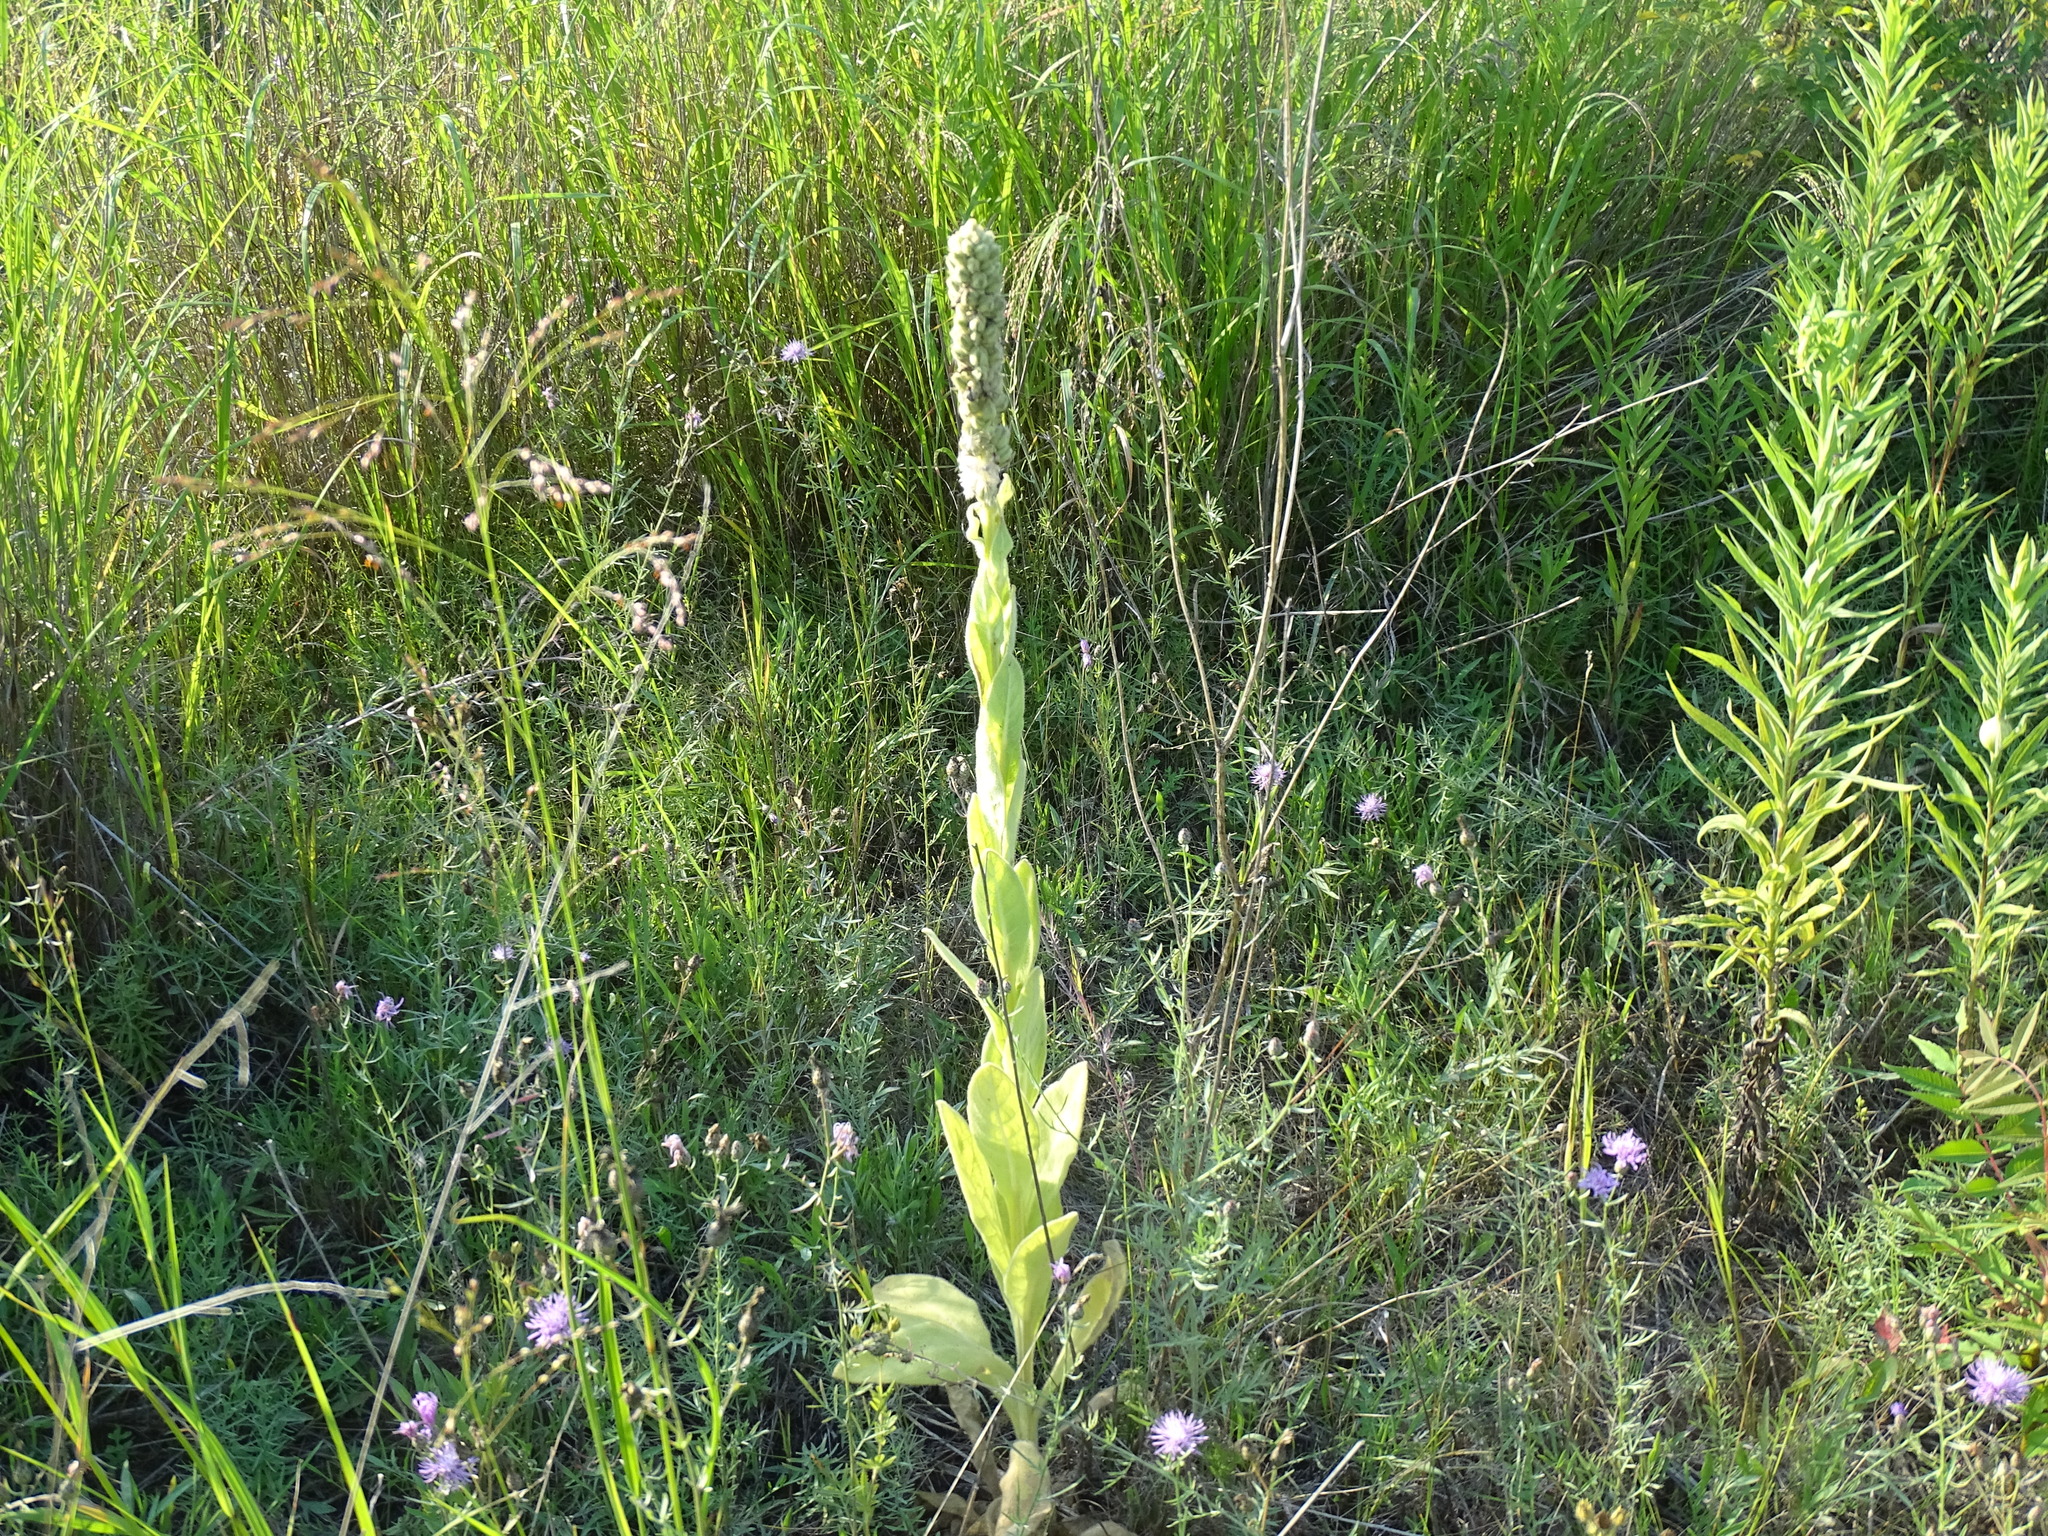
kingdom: Plantae
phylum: Tracheophyta
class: Magnoliopsida
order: Lamiales
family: Scrophulariaceae
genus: Verbascum
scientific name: Verbascum thapsus
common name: Common mullein
